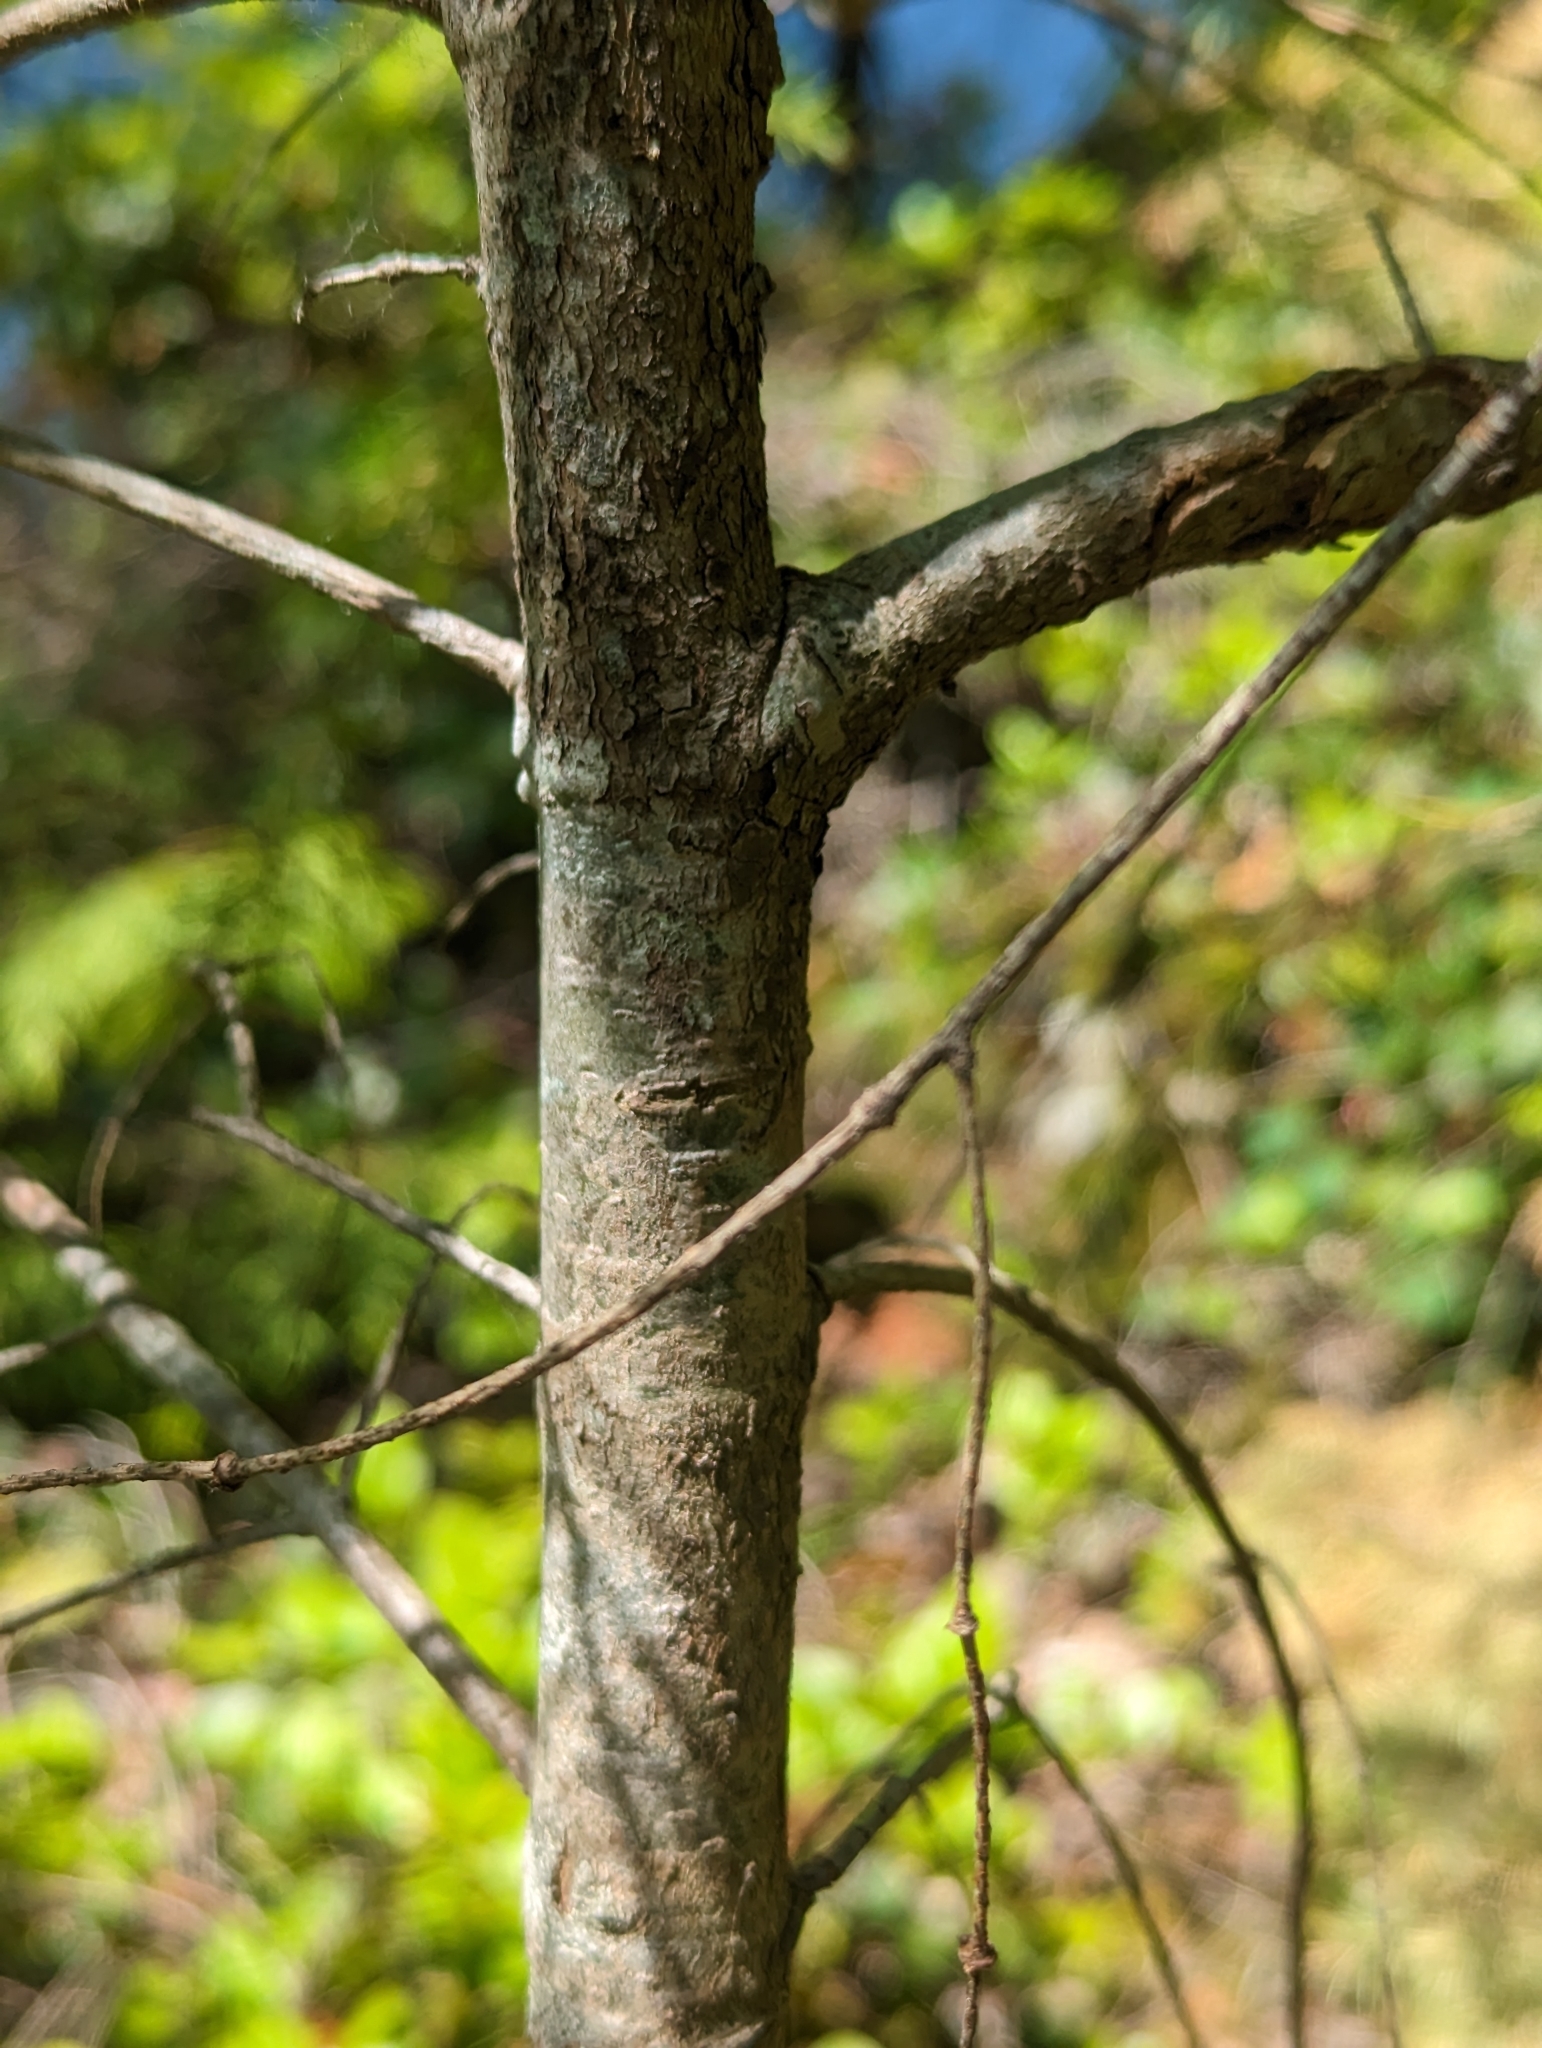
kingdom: Plantae
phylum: Tracheophyta
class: Pinopsida
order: Pinales
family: Pinaceae
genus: Pseudotsuga
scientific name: Pseudotsuga menziesii
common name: Douglas fir
